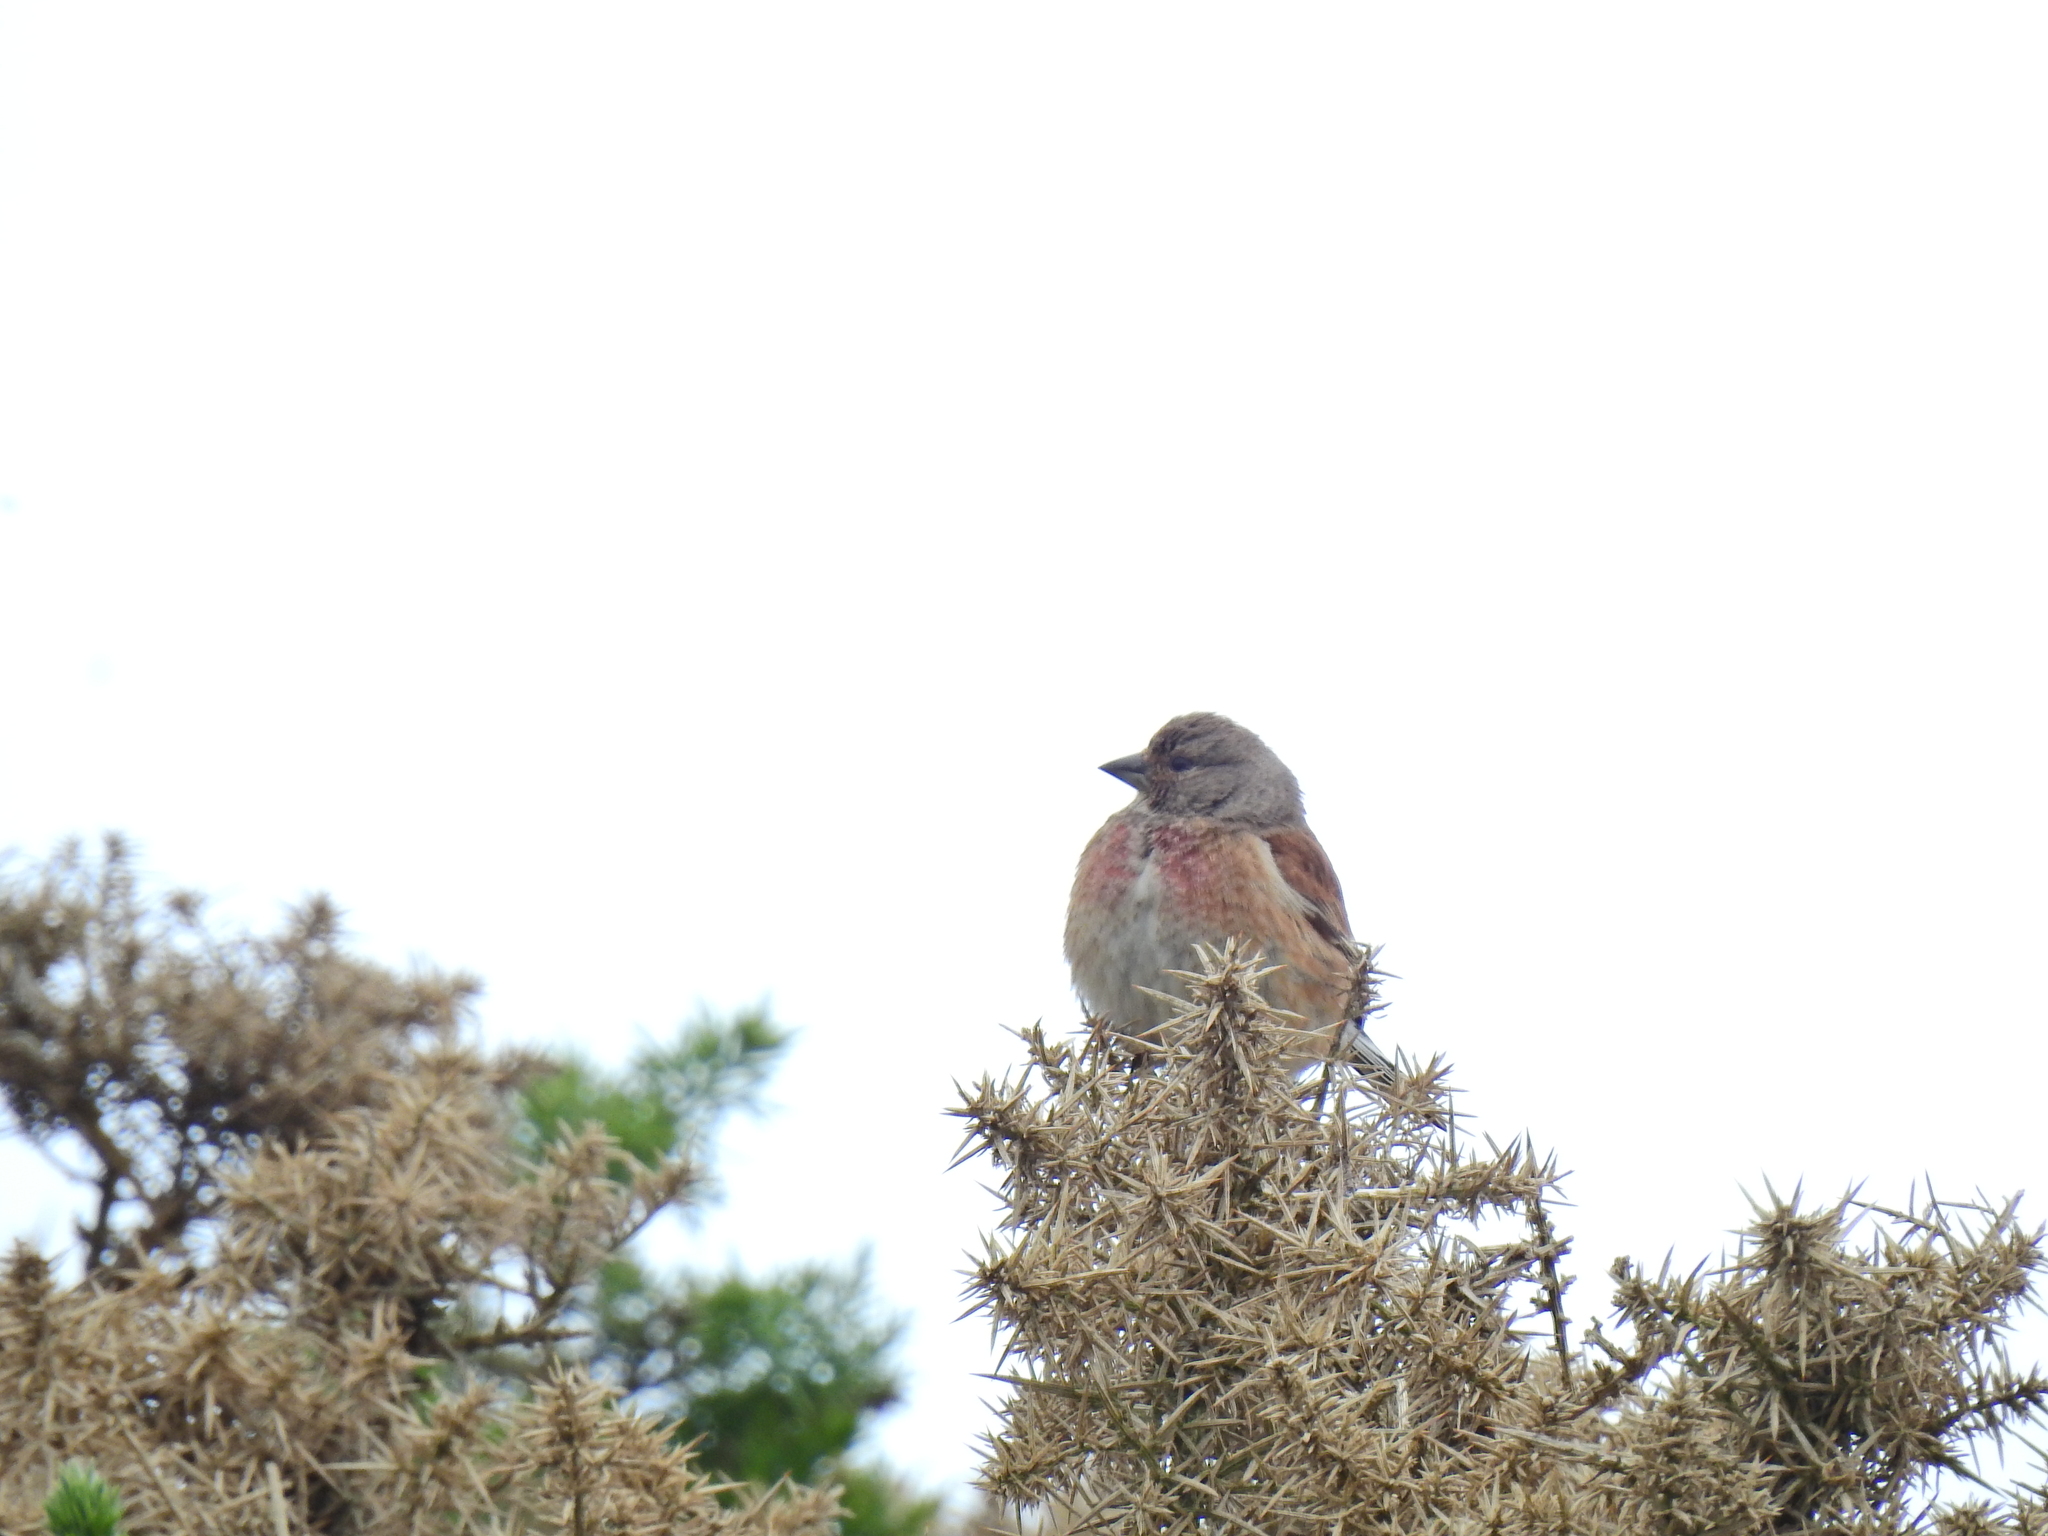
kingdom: Animalia
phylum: Chordata
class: Aves
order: Passeriformes
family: Fringillidae
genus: Linaria
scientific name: Linaria cannabina
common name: Common linnet
